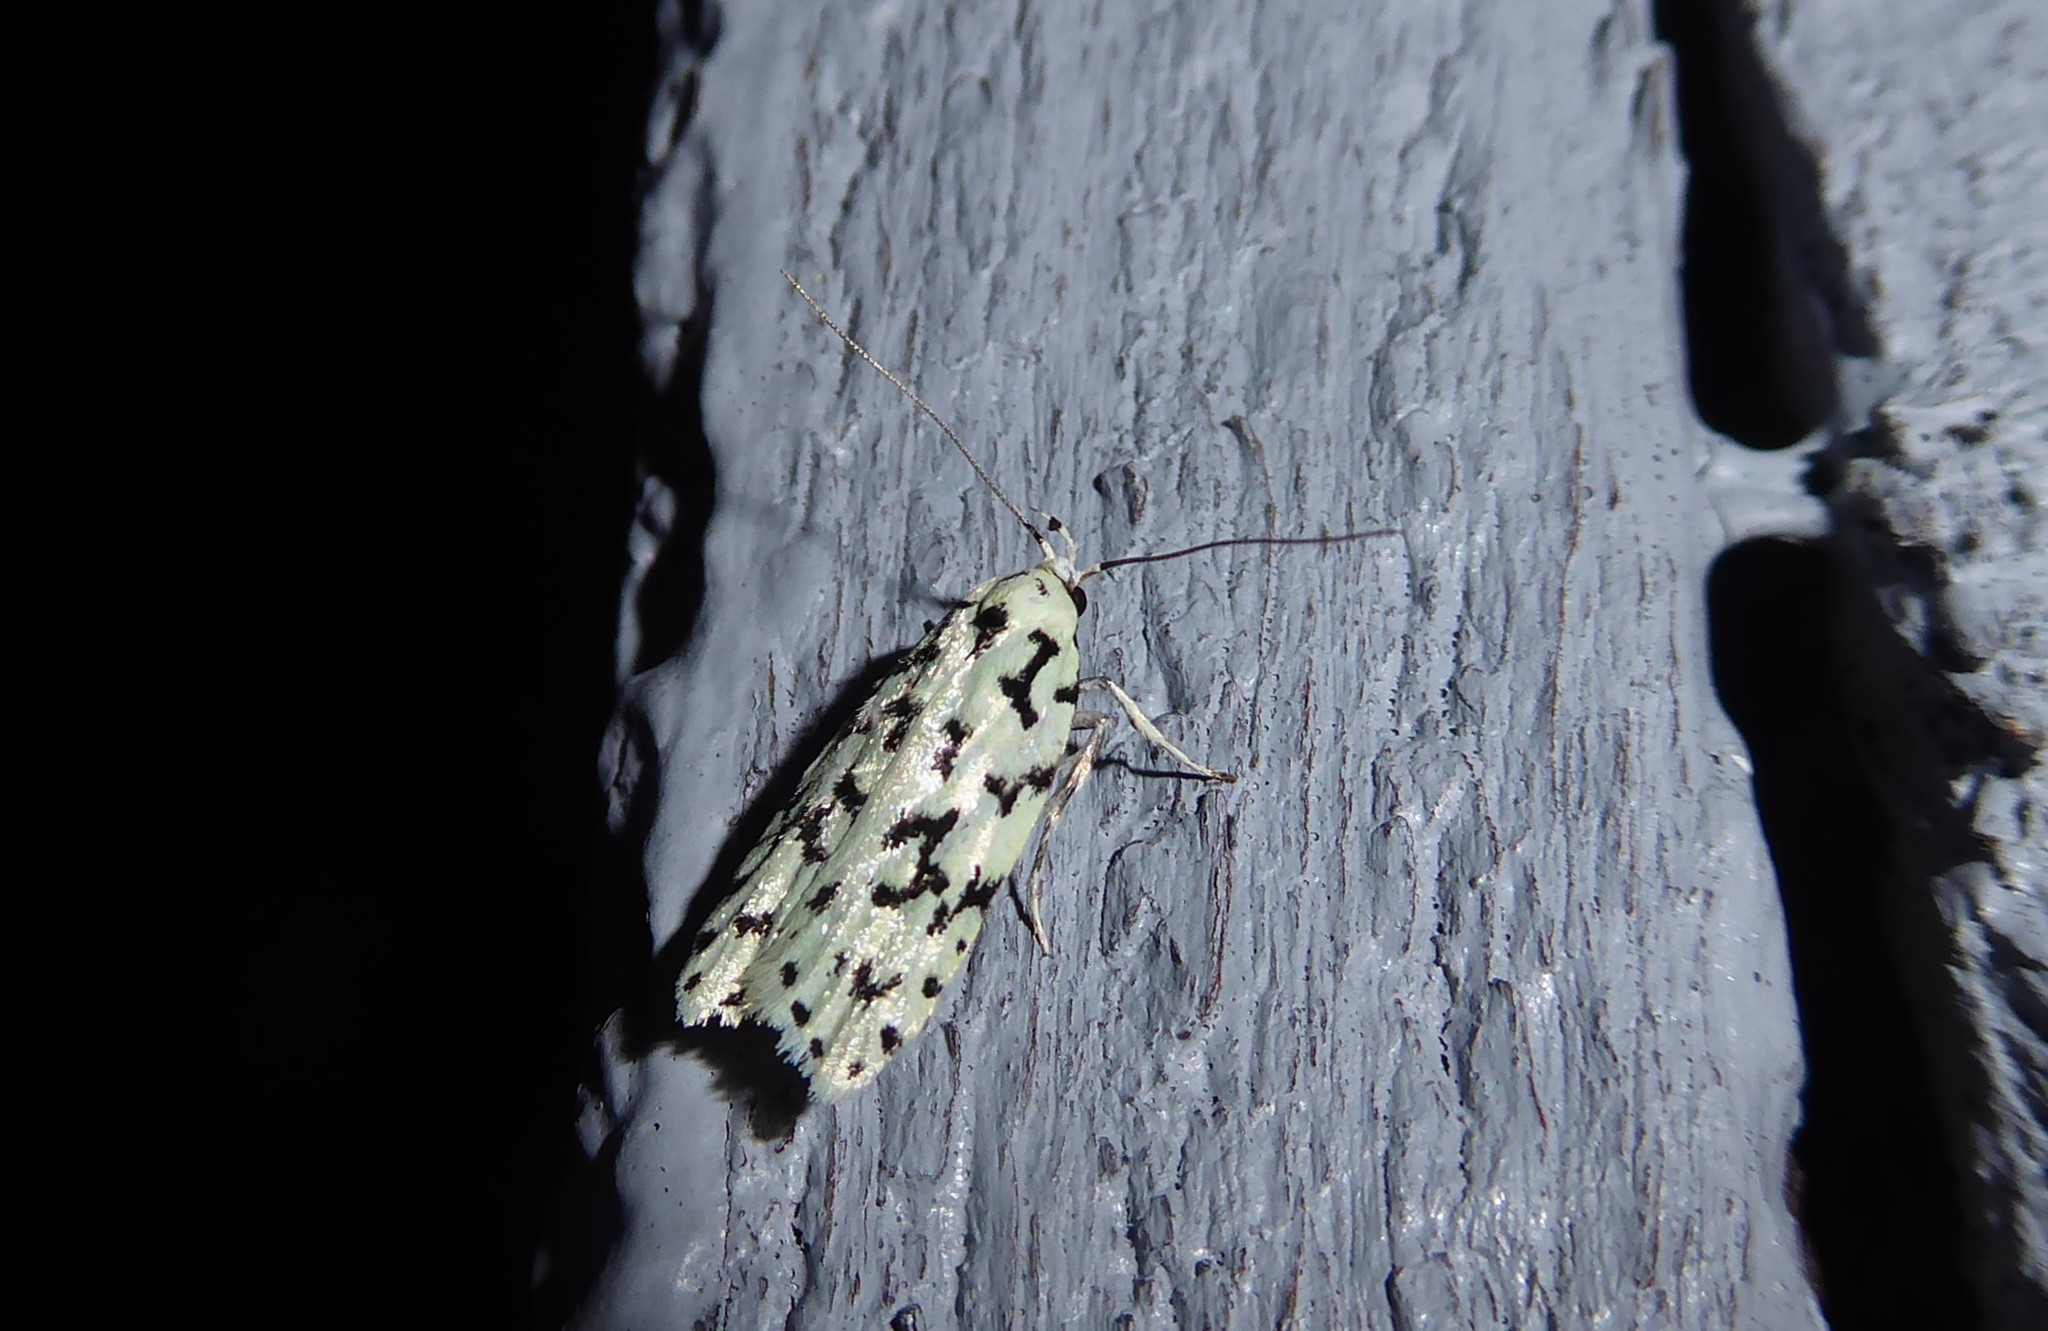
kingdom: Animalia
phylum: Arthropoda
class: Insecta
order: Lepidoptera
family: Oecophoridae
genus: Izatha
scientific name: Izatha huttoni
